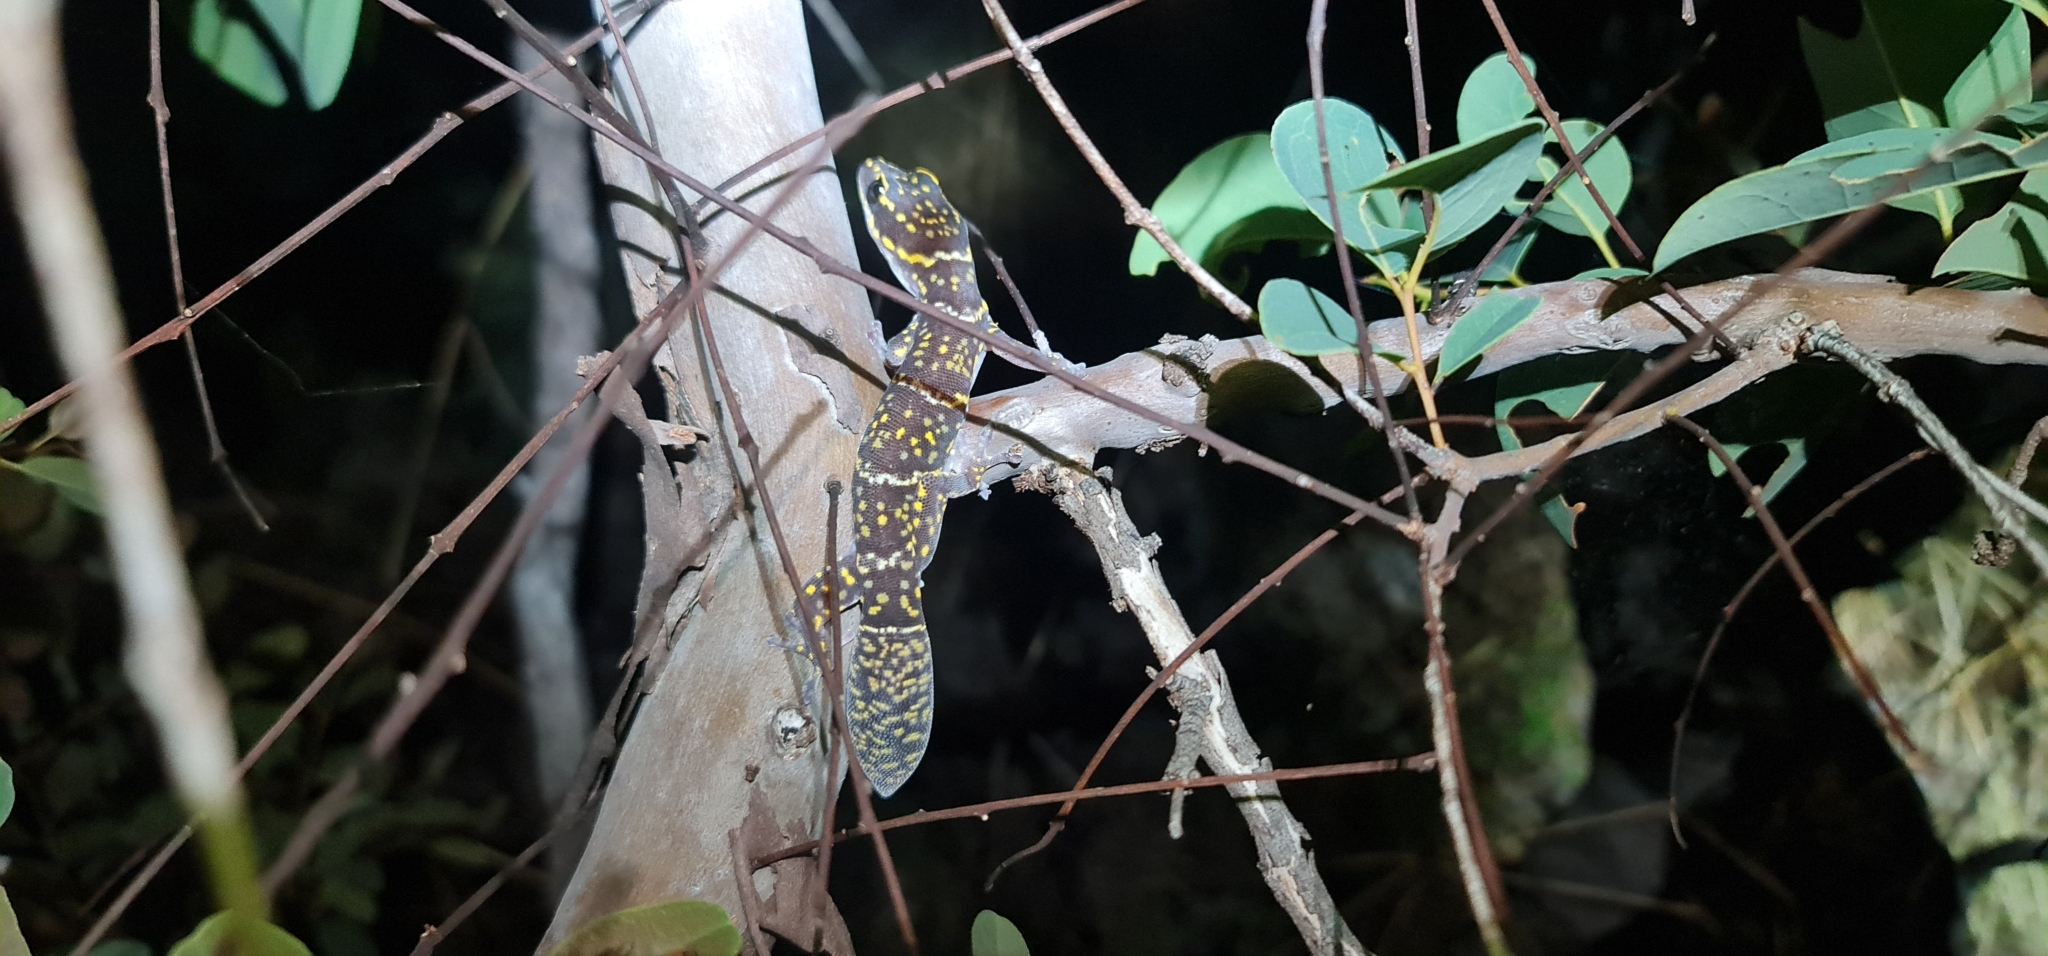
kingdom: Animalia
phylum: Chordata
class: Squamata
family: Diplodactylidae
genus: Oedura
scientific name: Oedura marmorata
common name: Marbled velvet gecko
